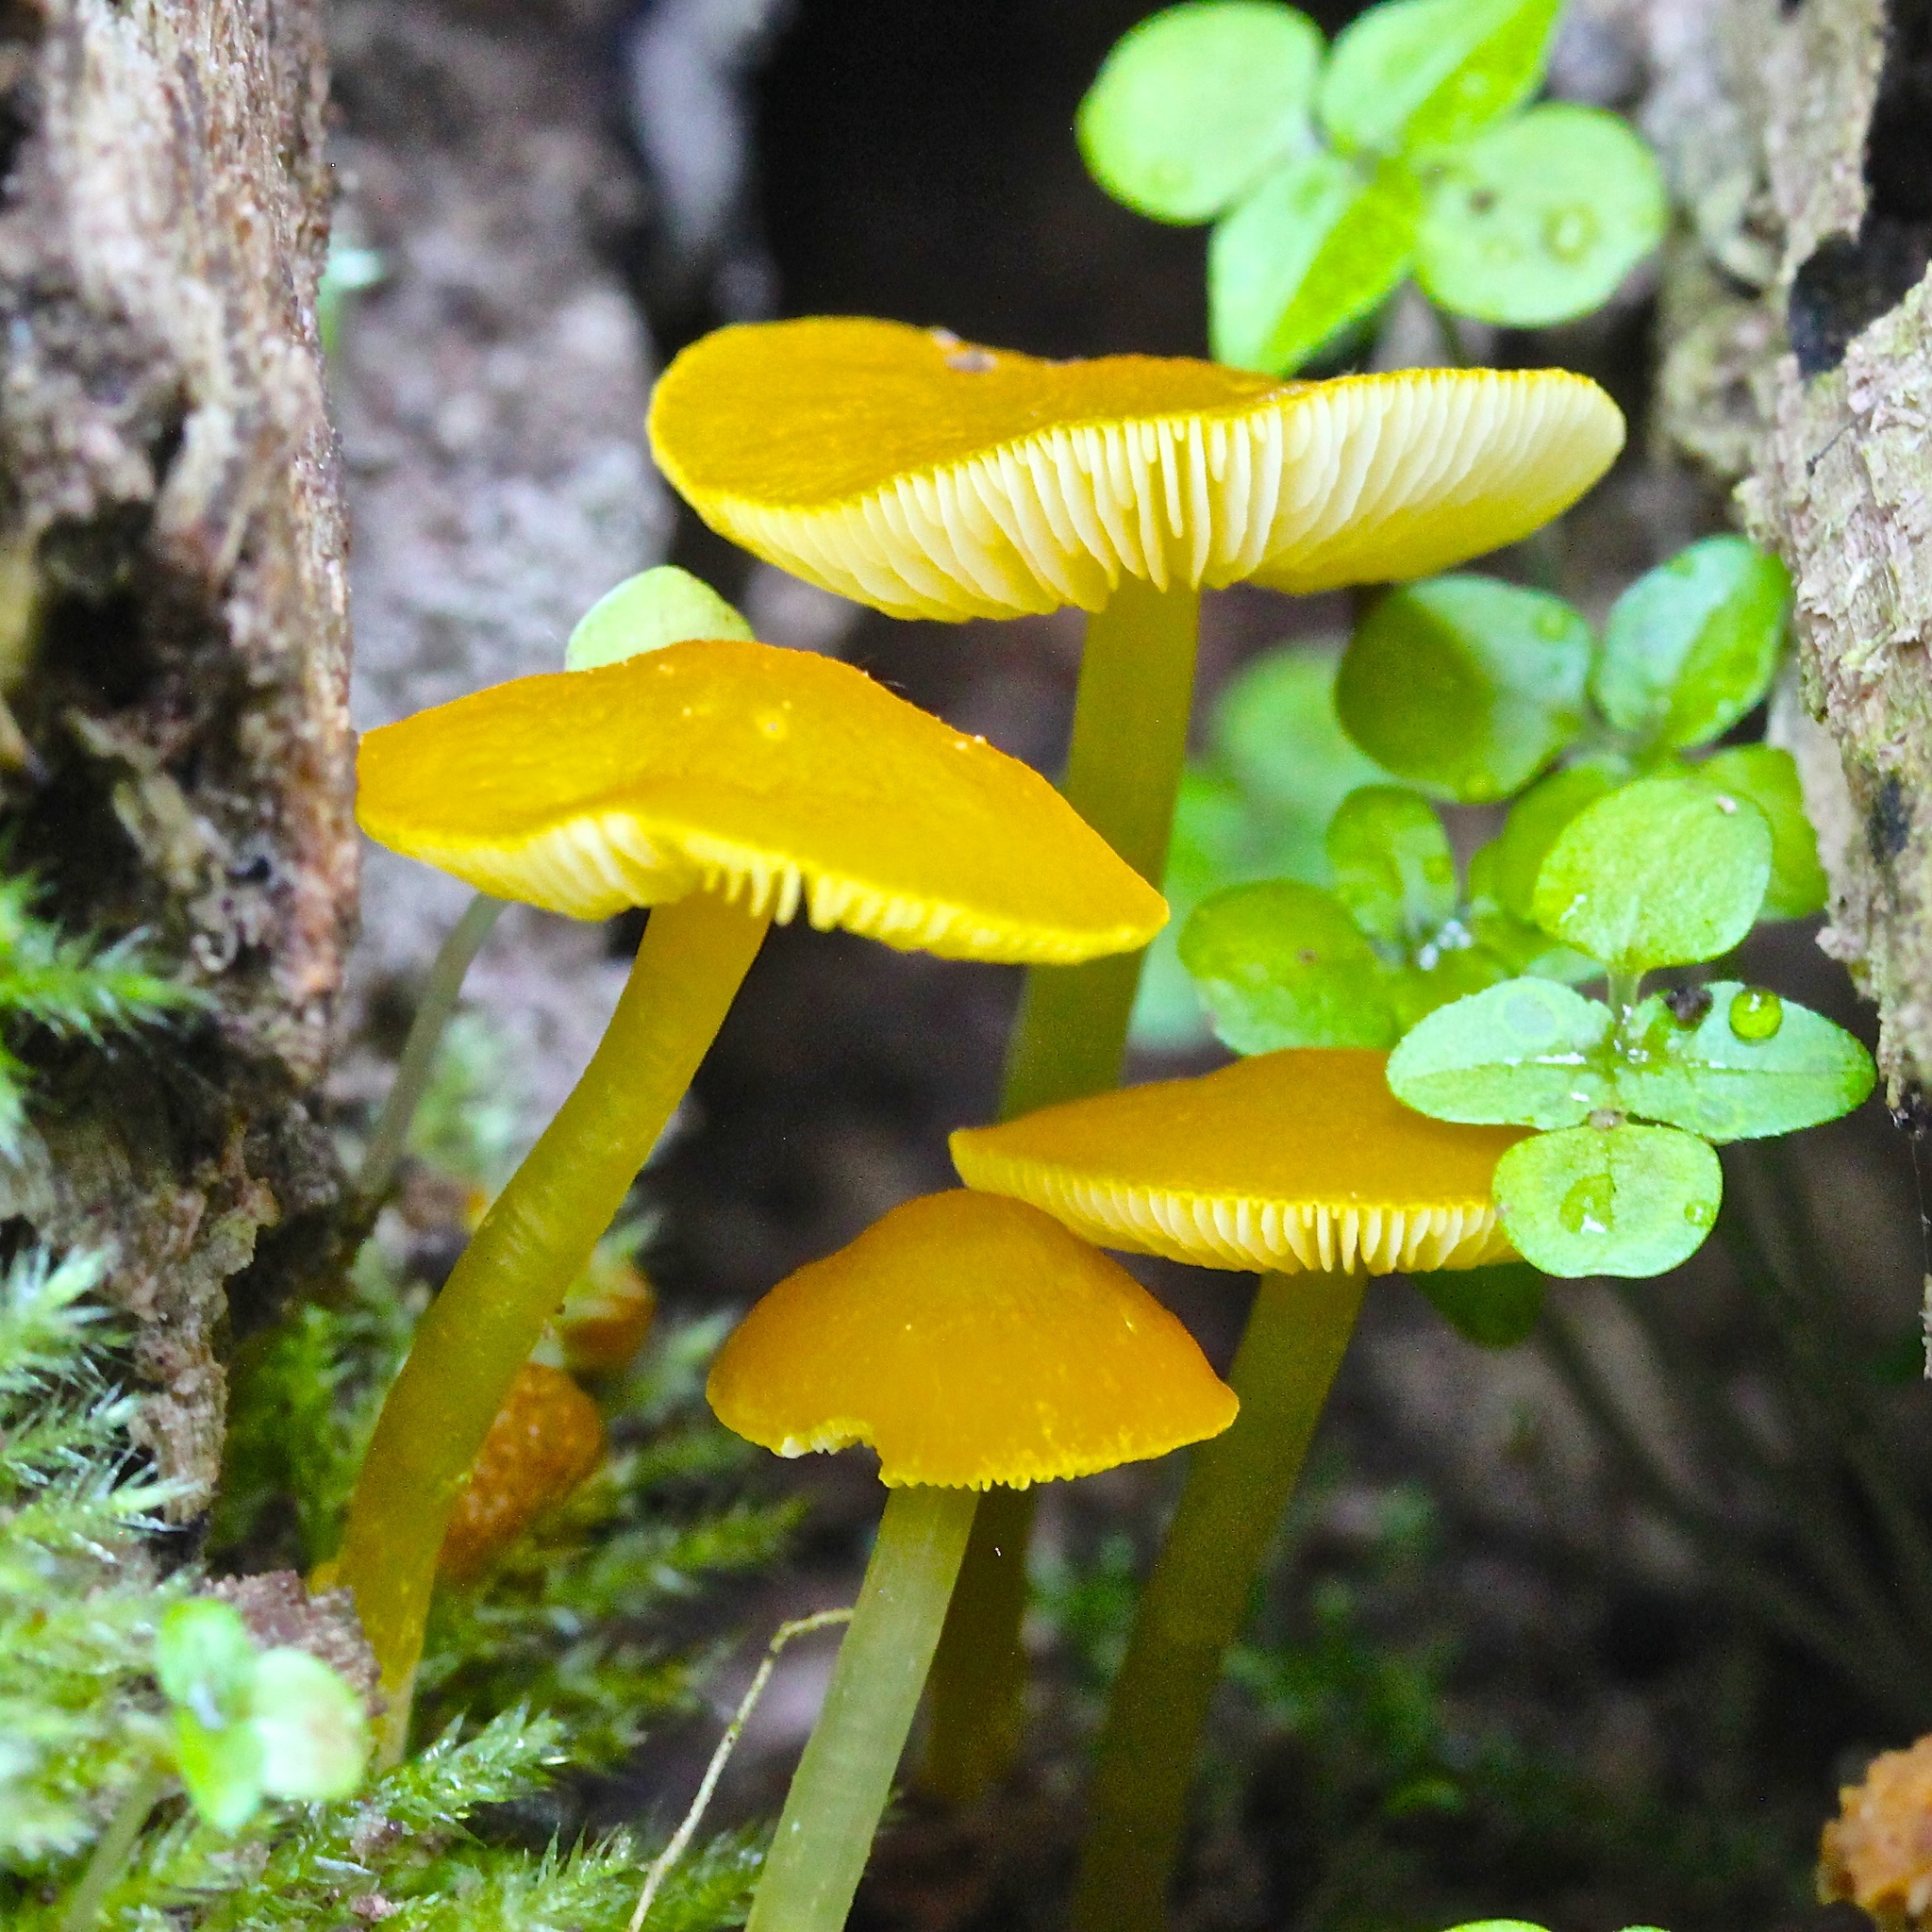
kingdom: Fungi
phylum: Basidiomycota
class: Agaricomycetes
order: Agaricales
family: Pluteaceae
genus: Pluteus
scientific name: Pluteus admirabilis
